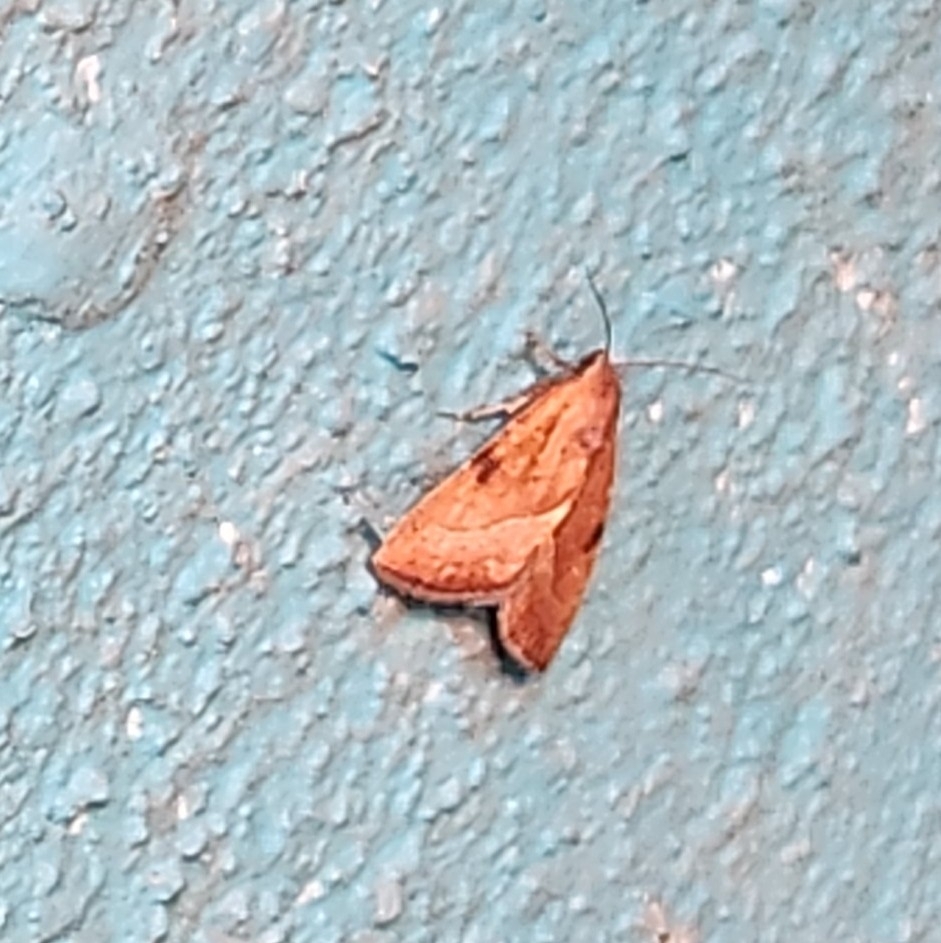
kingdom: Animalia
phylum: Arthropoda
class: Insecta
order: Lepidoptera
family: Noctuidae
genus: Galgula
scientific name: Galgula partita
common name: Wedgeling
